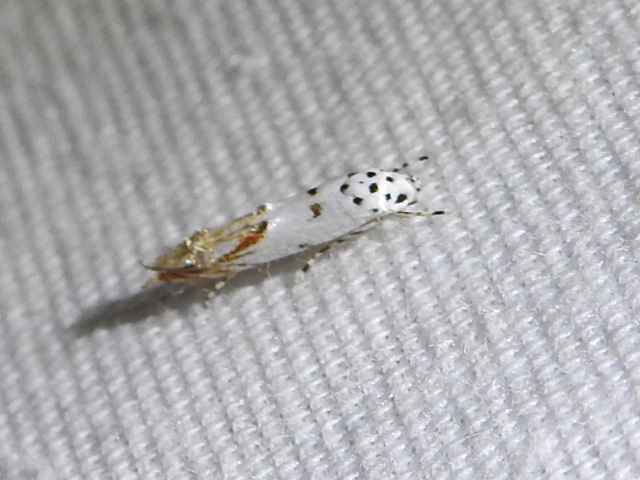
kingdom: Animalia
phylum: Arthropoda
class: Insecta
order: Lepidoptera
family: Momphidae
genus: Mompha
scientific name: Mompha eloisella
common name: Red-streaked mompha moth
